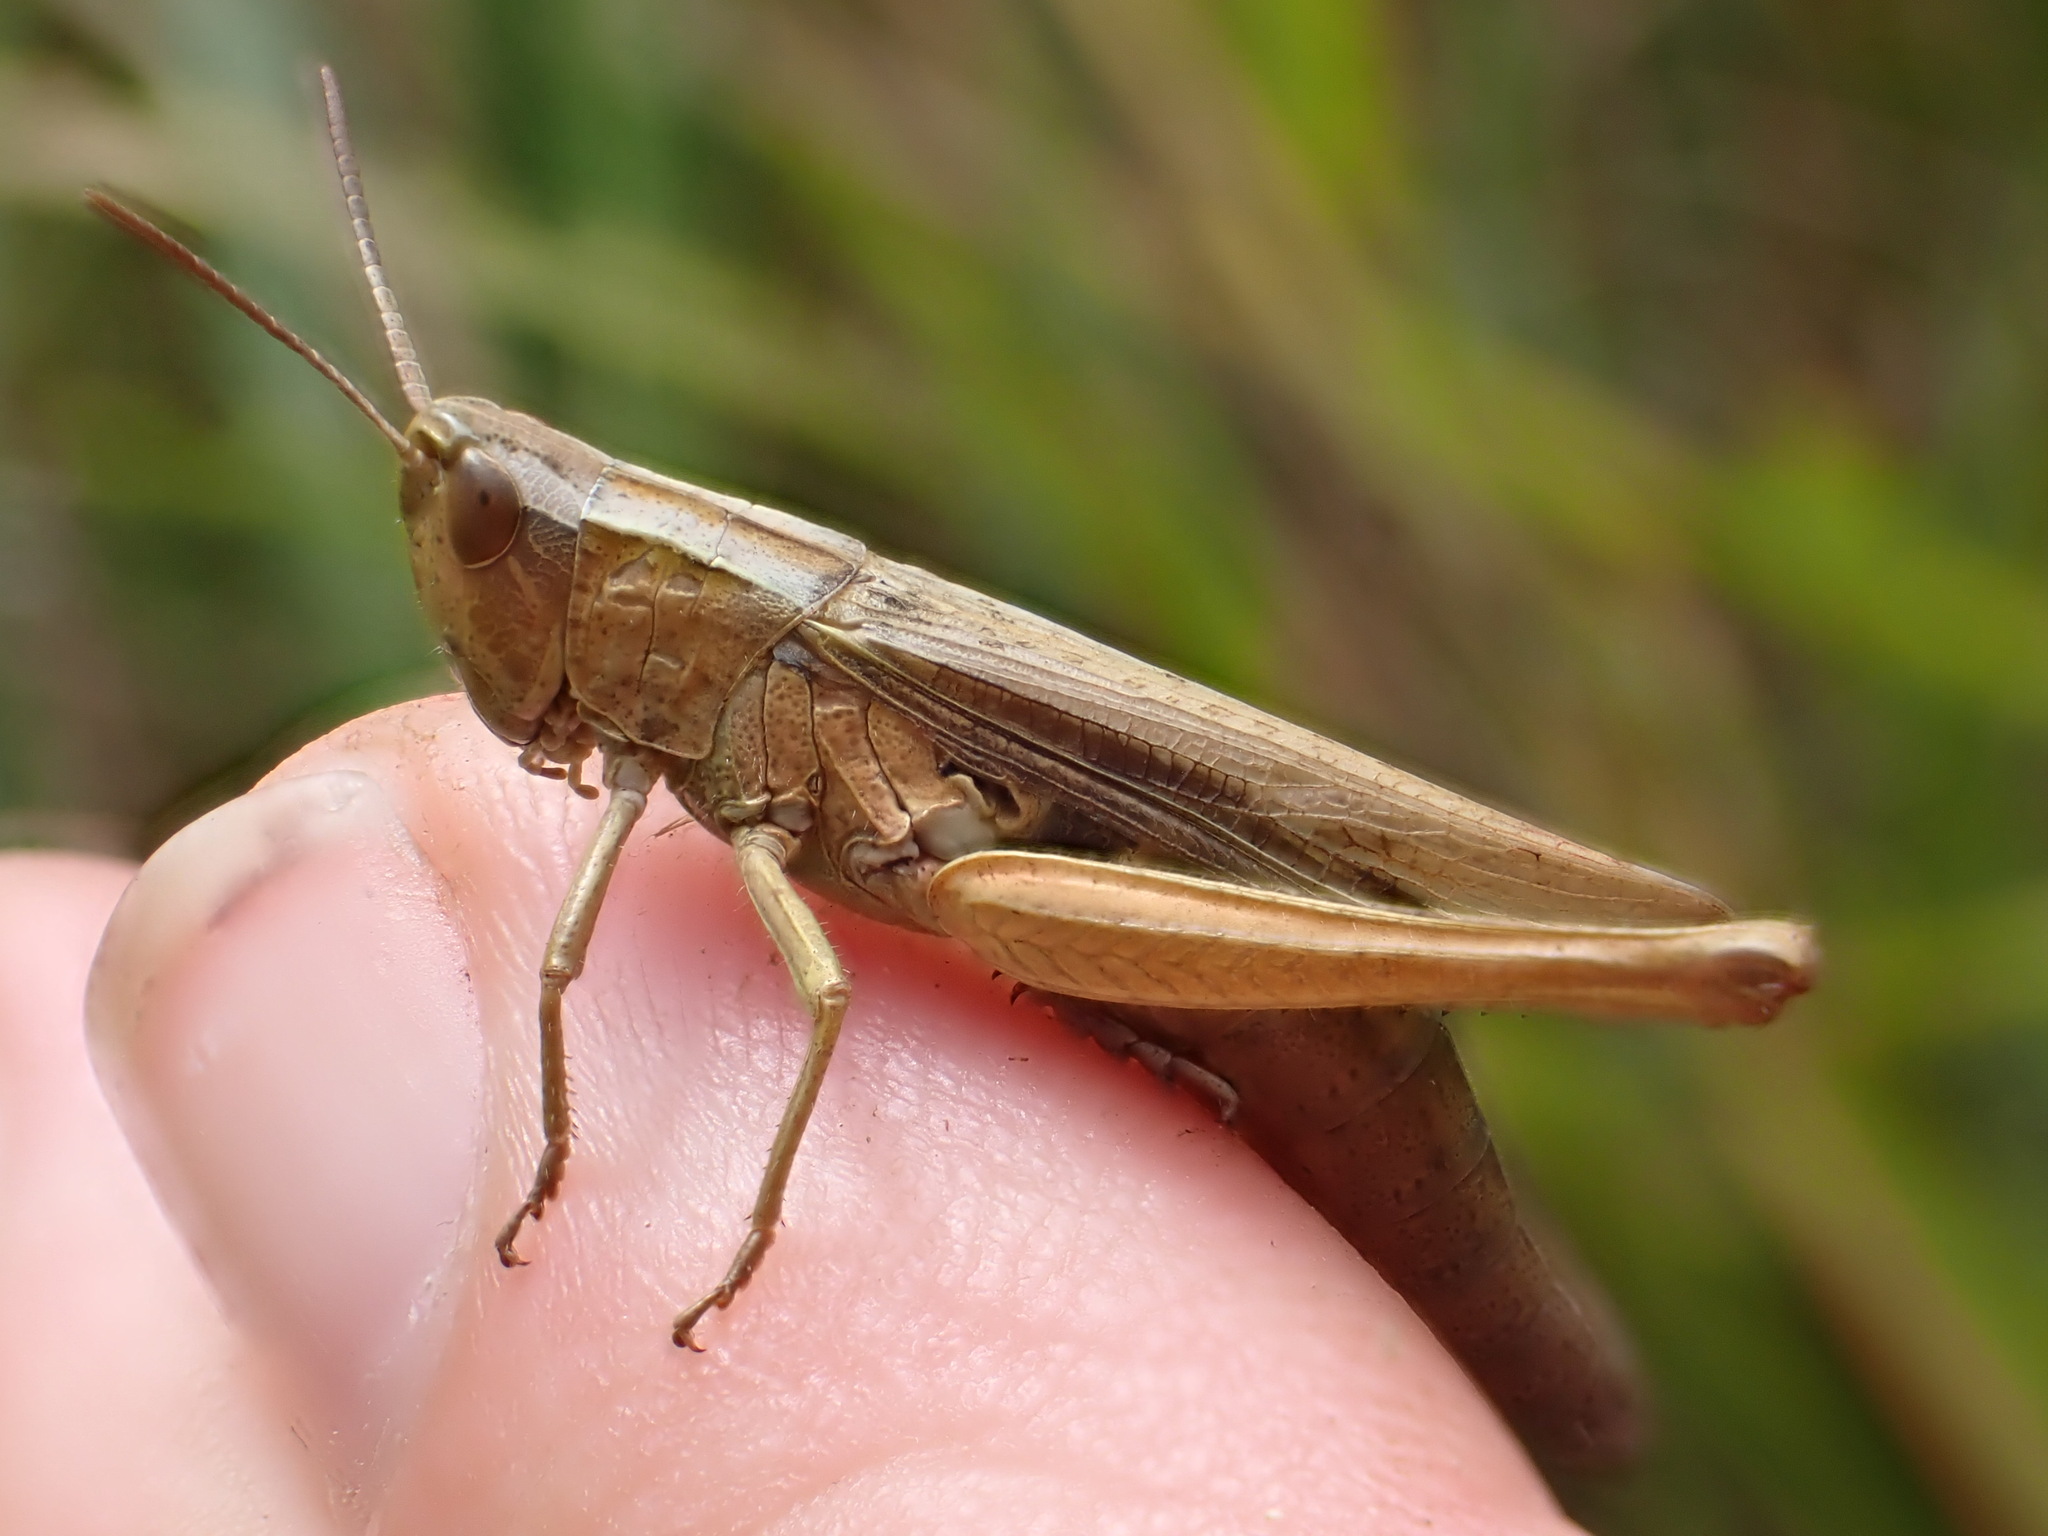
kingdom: Animalia
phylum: Arthropoda
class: Insecta
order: Orthoptera
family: Acrididae
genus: Chorthippus
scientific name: Chorthippus albomarginatus
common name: Lesser marsh grasshopper
